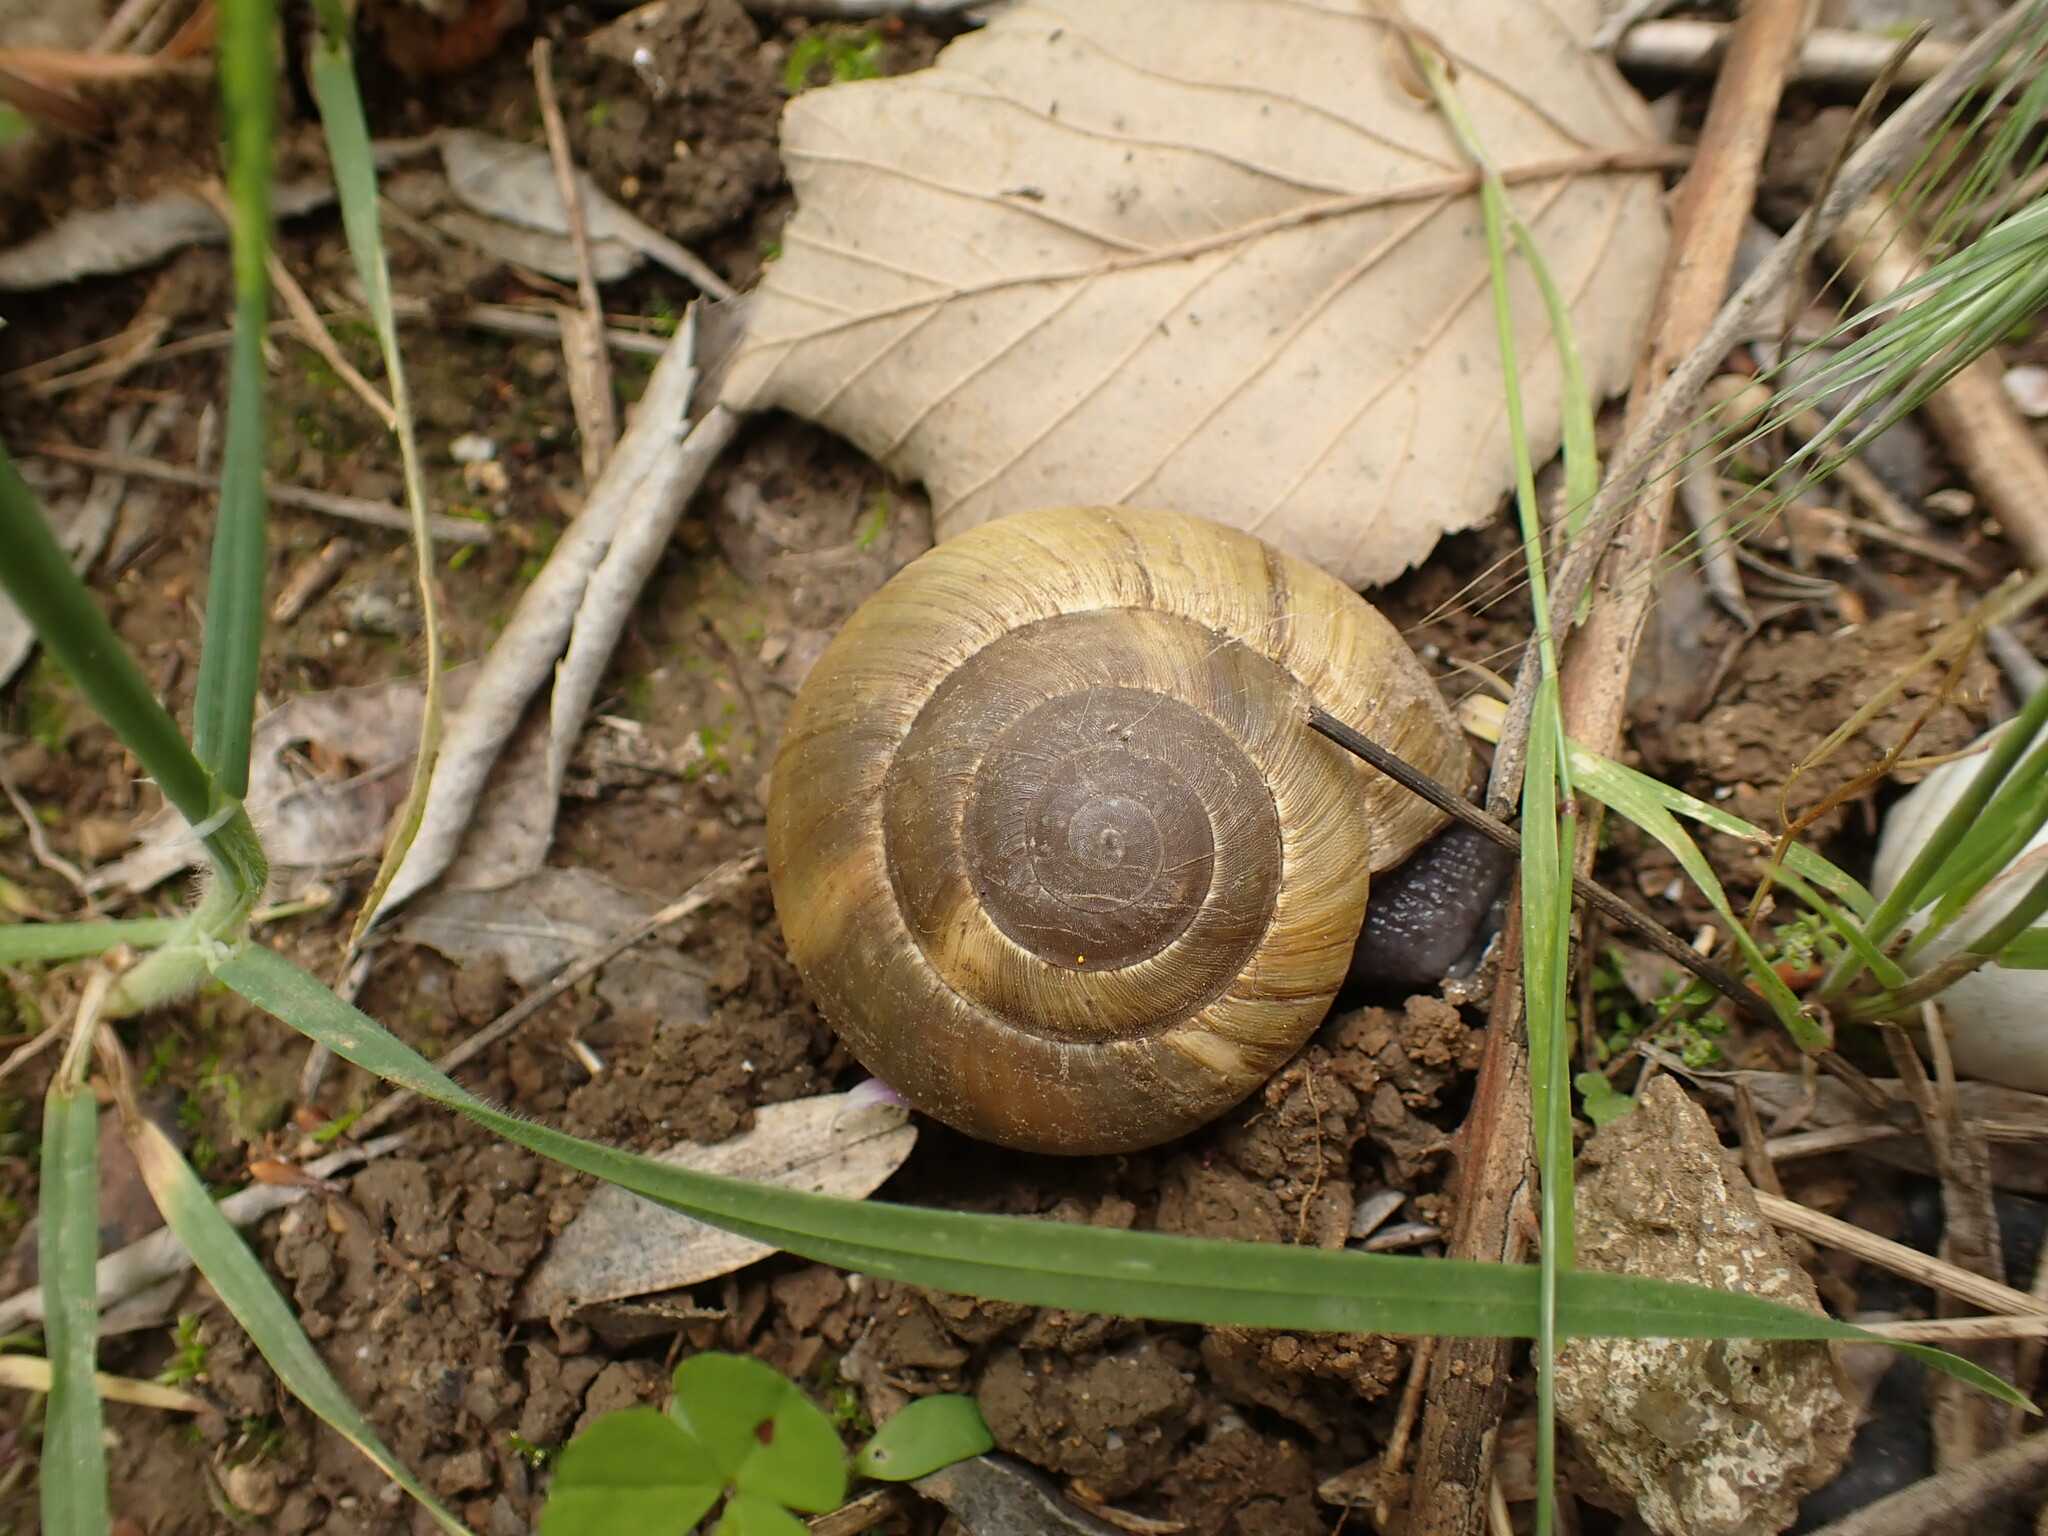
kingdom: Animalia
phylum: Mollusca
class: Gastropoda
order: Stylommatophora
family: Zonitidae
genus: Zonites
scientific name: Zonites algirus
